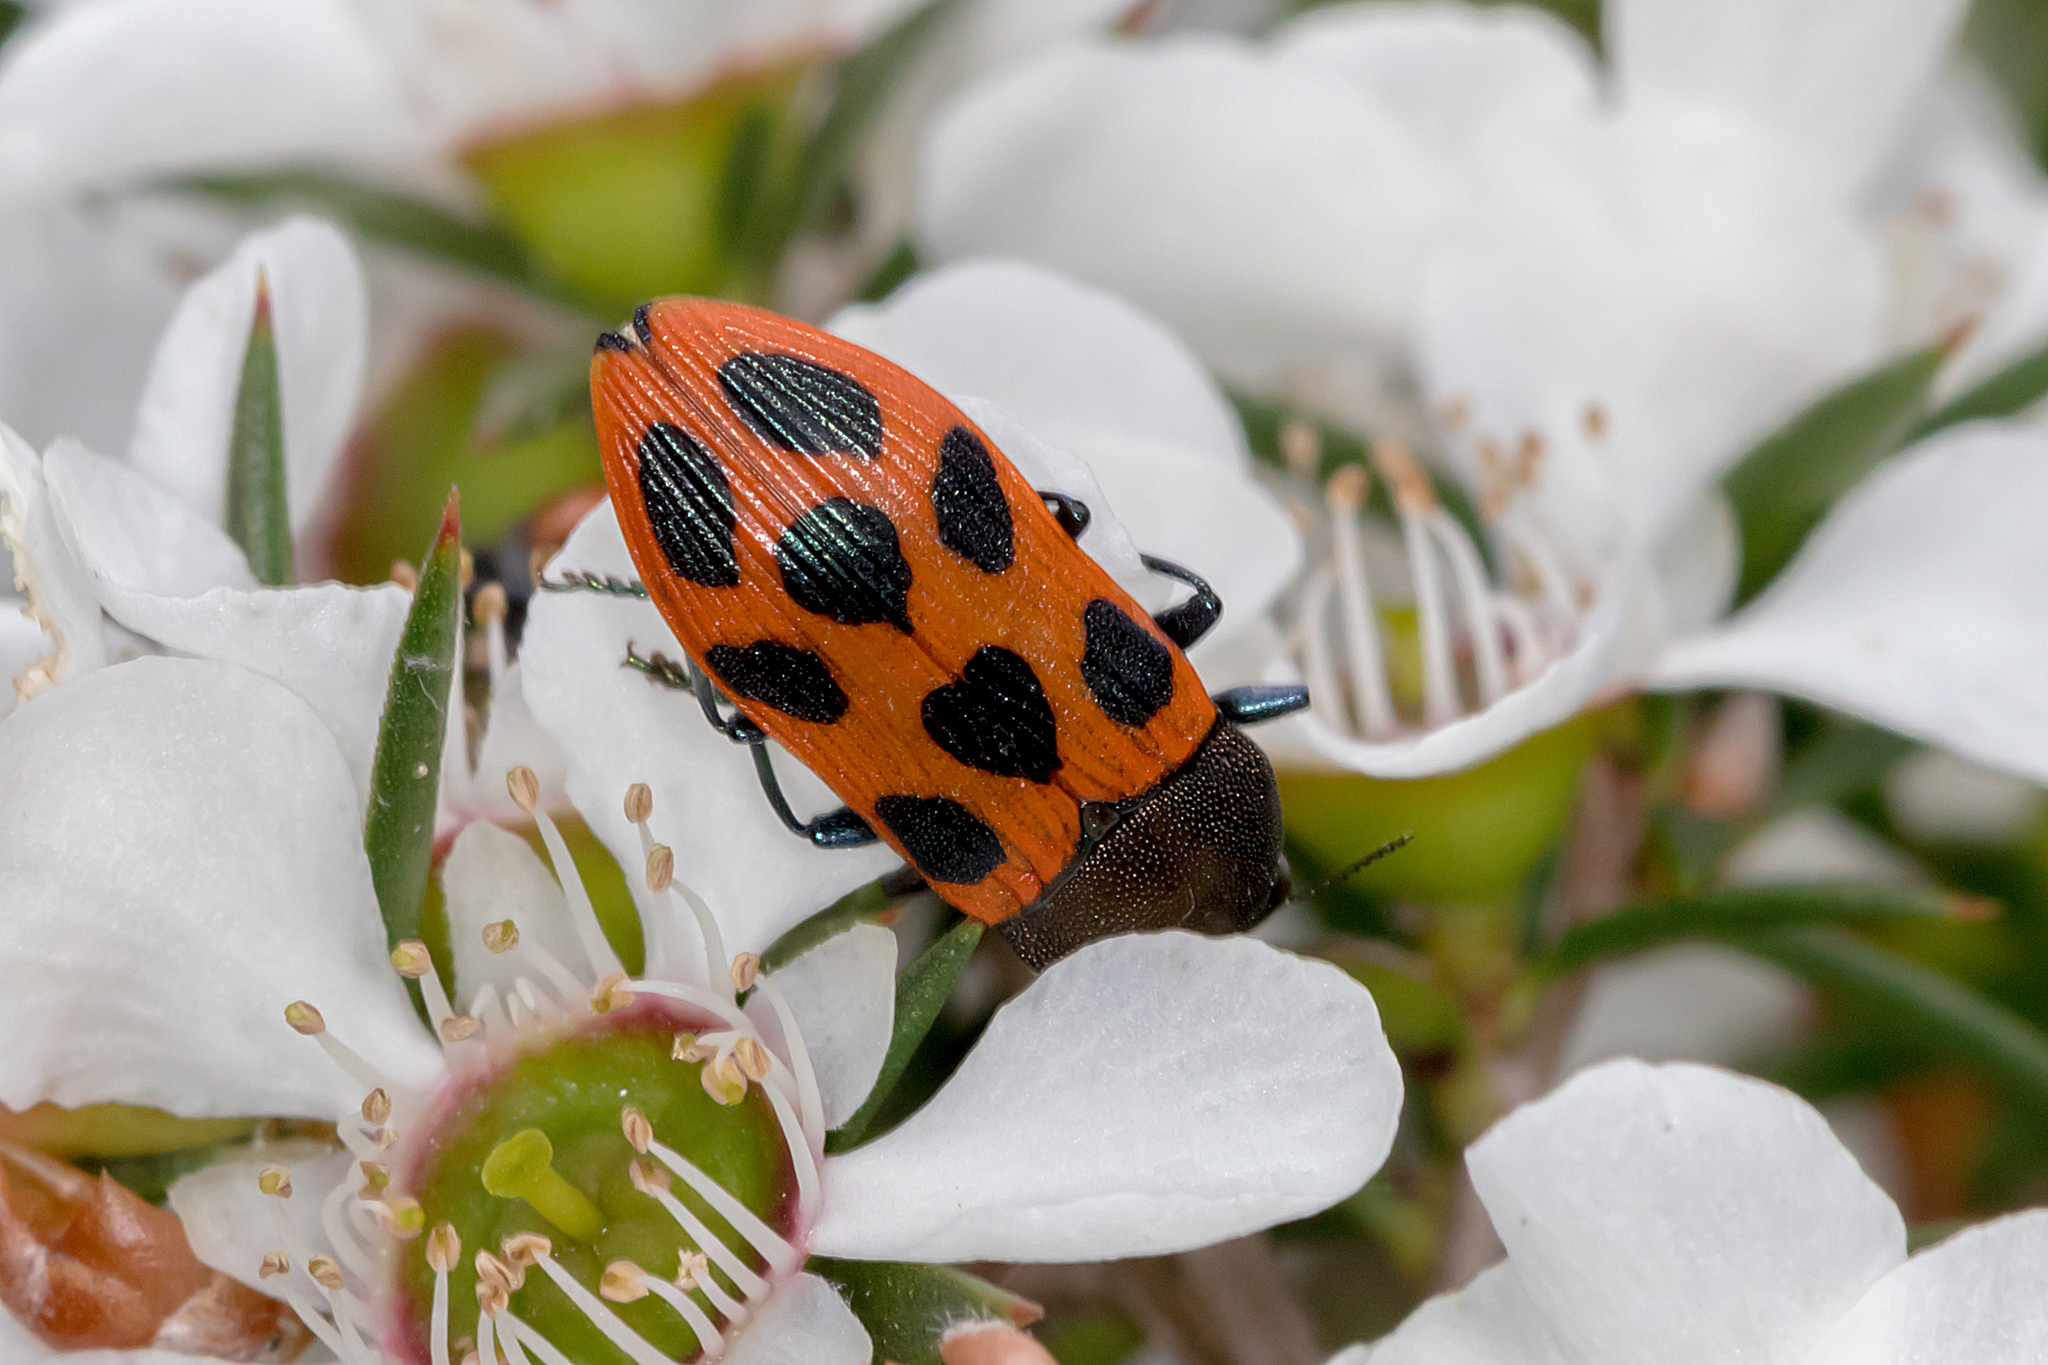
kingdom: Animalia
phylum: Arthropoda
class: Insecta
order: Coleoptera
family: Buprestidae
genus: Castiarina
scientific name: Castiarina octomaculata
